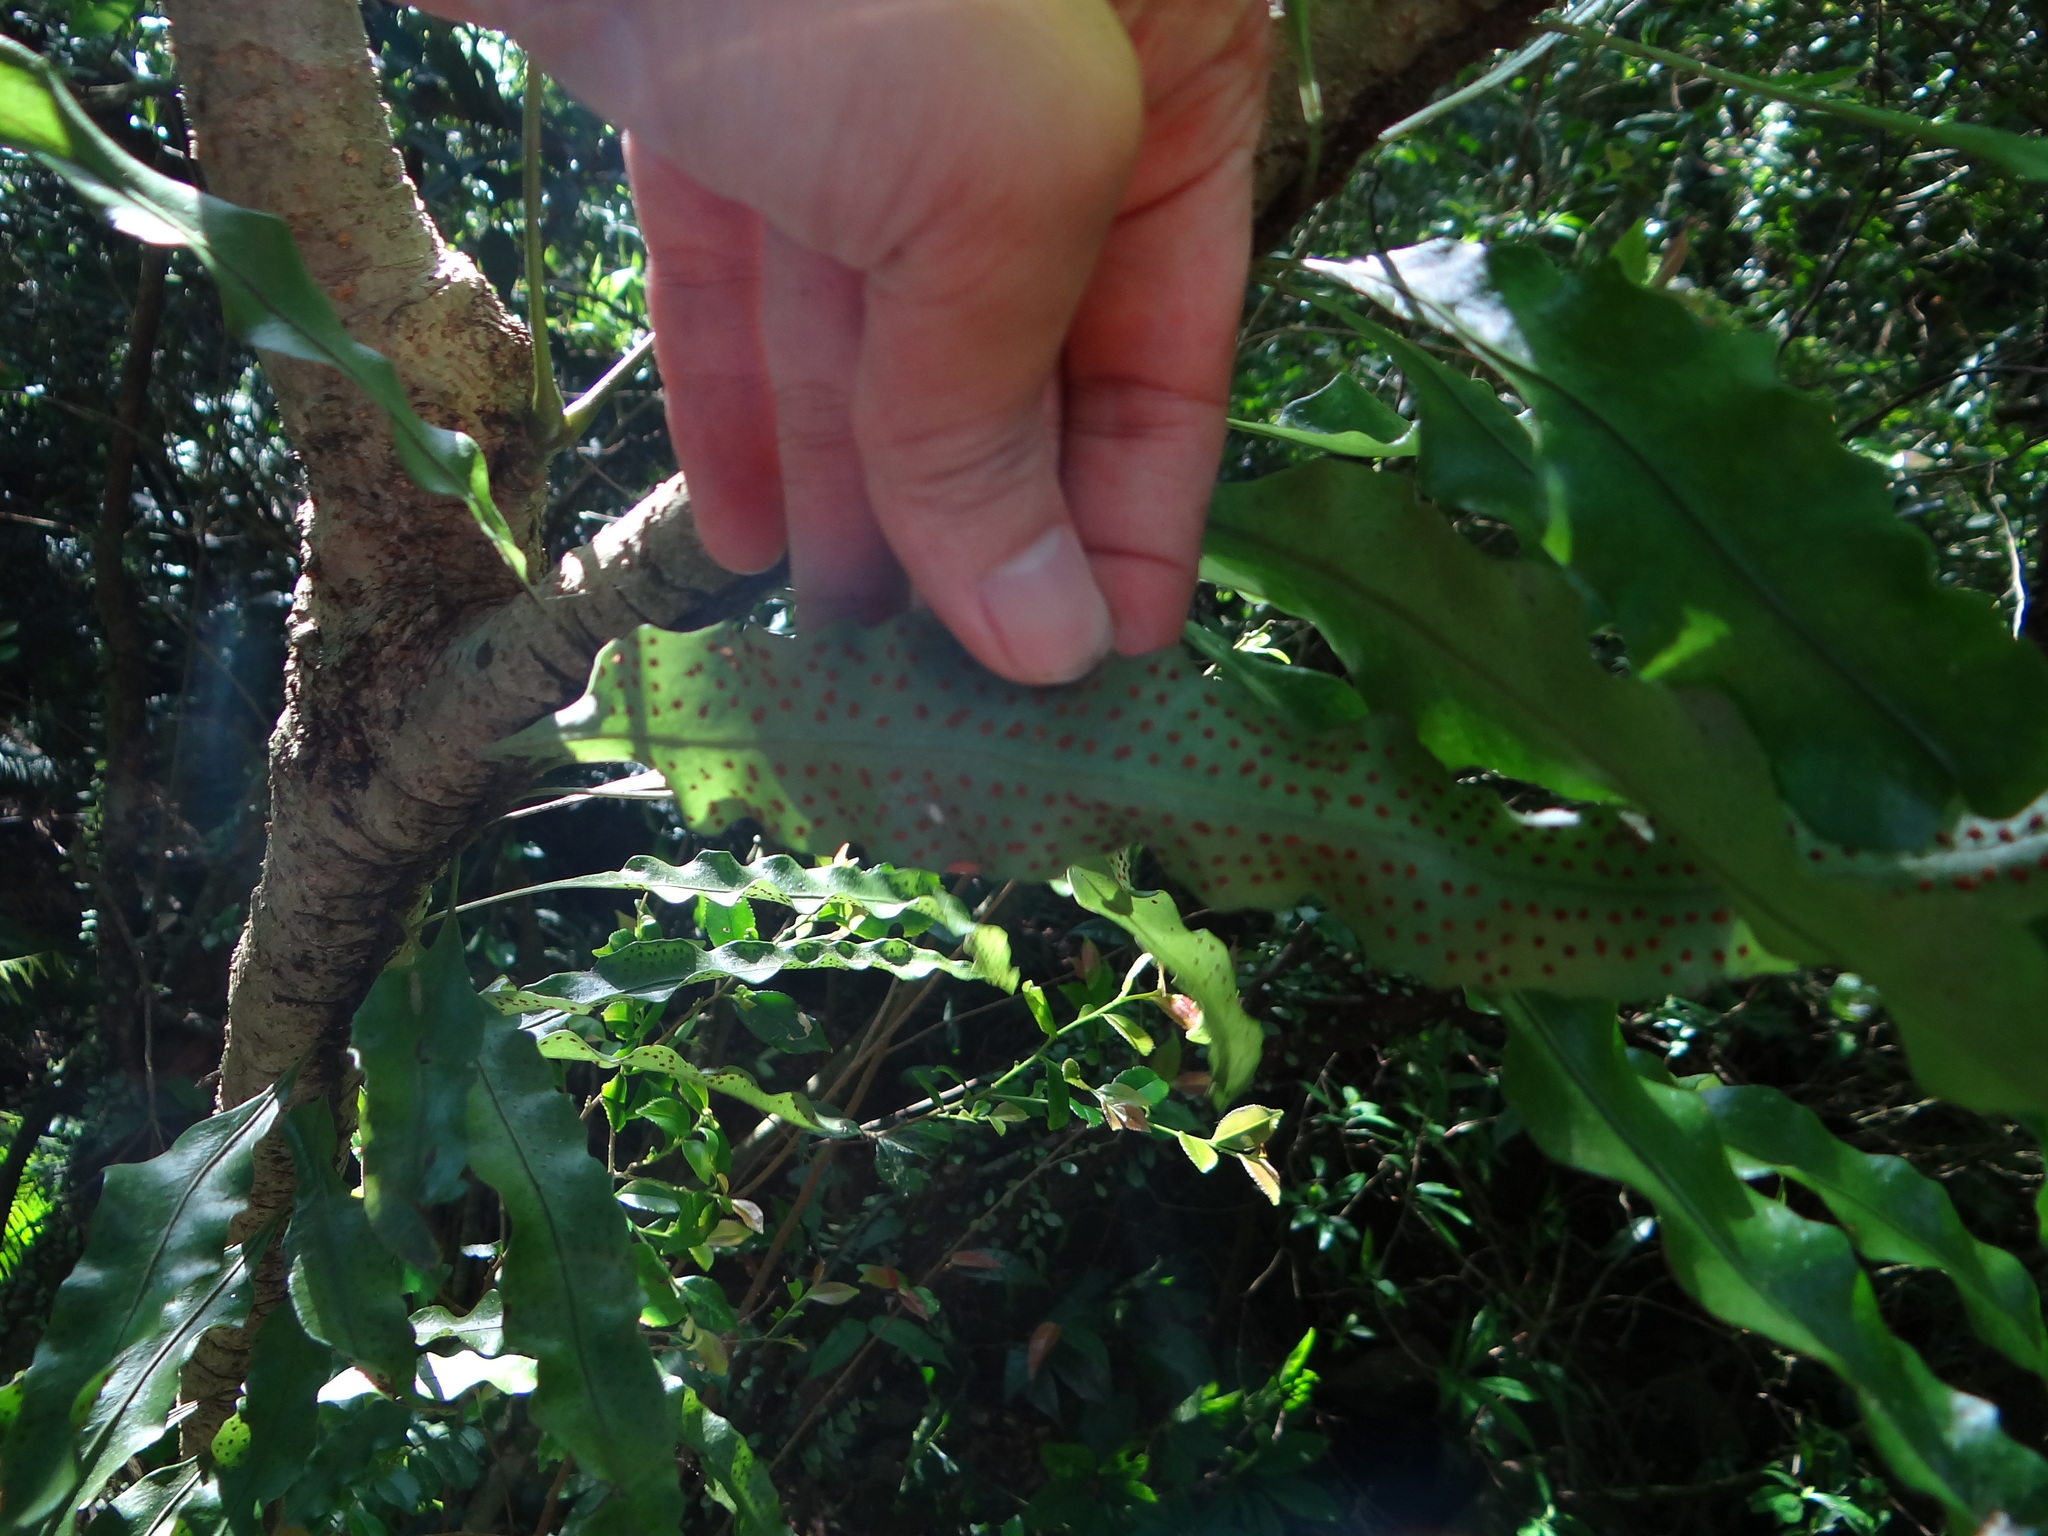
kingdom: Plantae
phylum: Tracheophyta
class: Polypodiopsida
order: Polypodiales
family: Polypodiaceae
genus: Lepisorus
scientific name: Lepisorus superficialis
